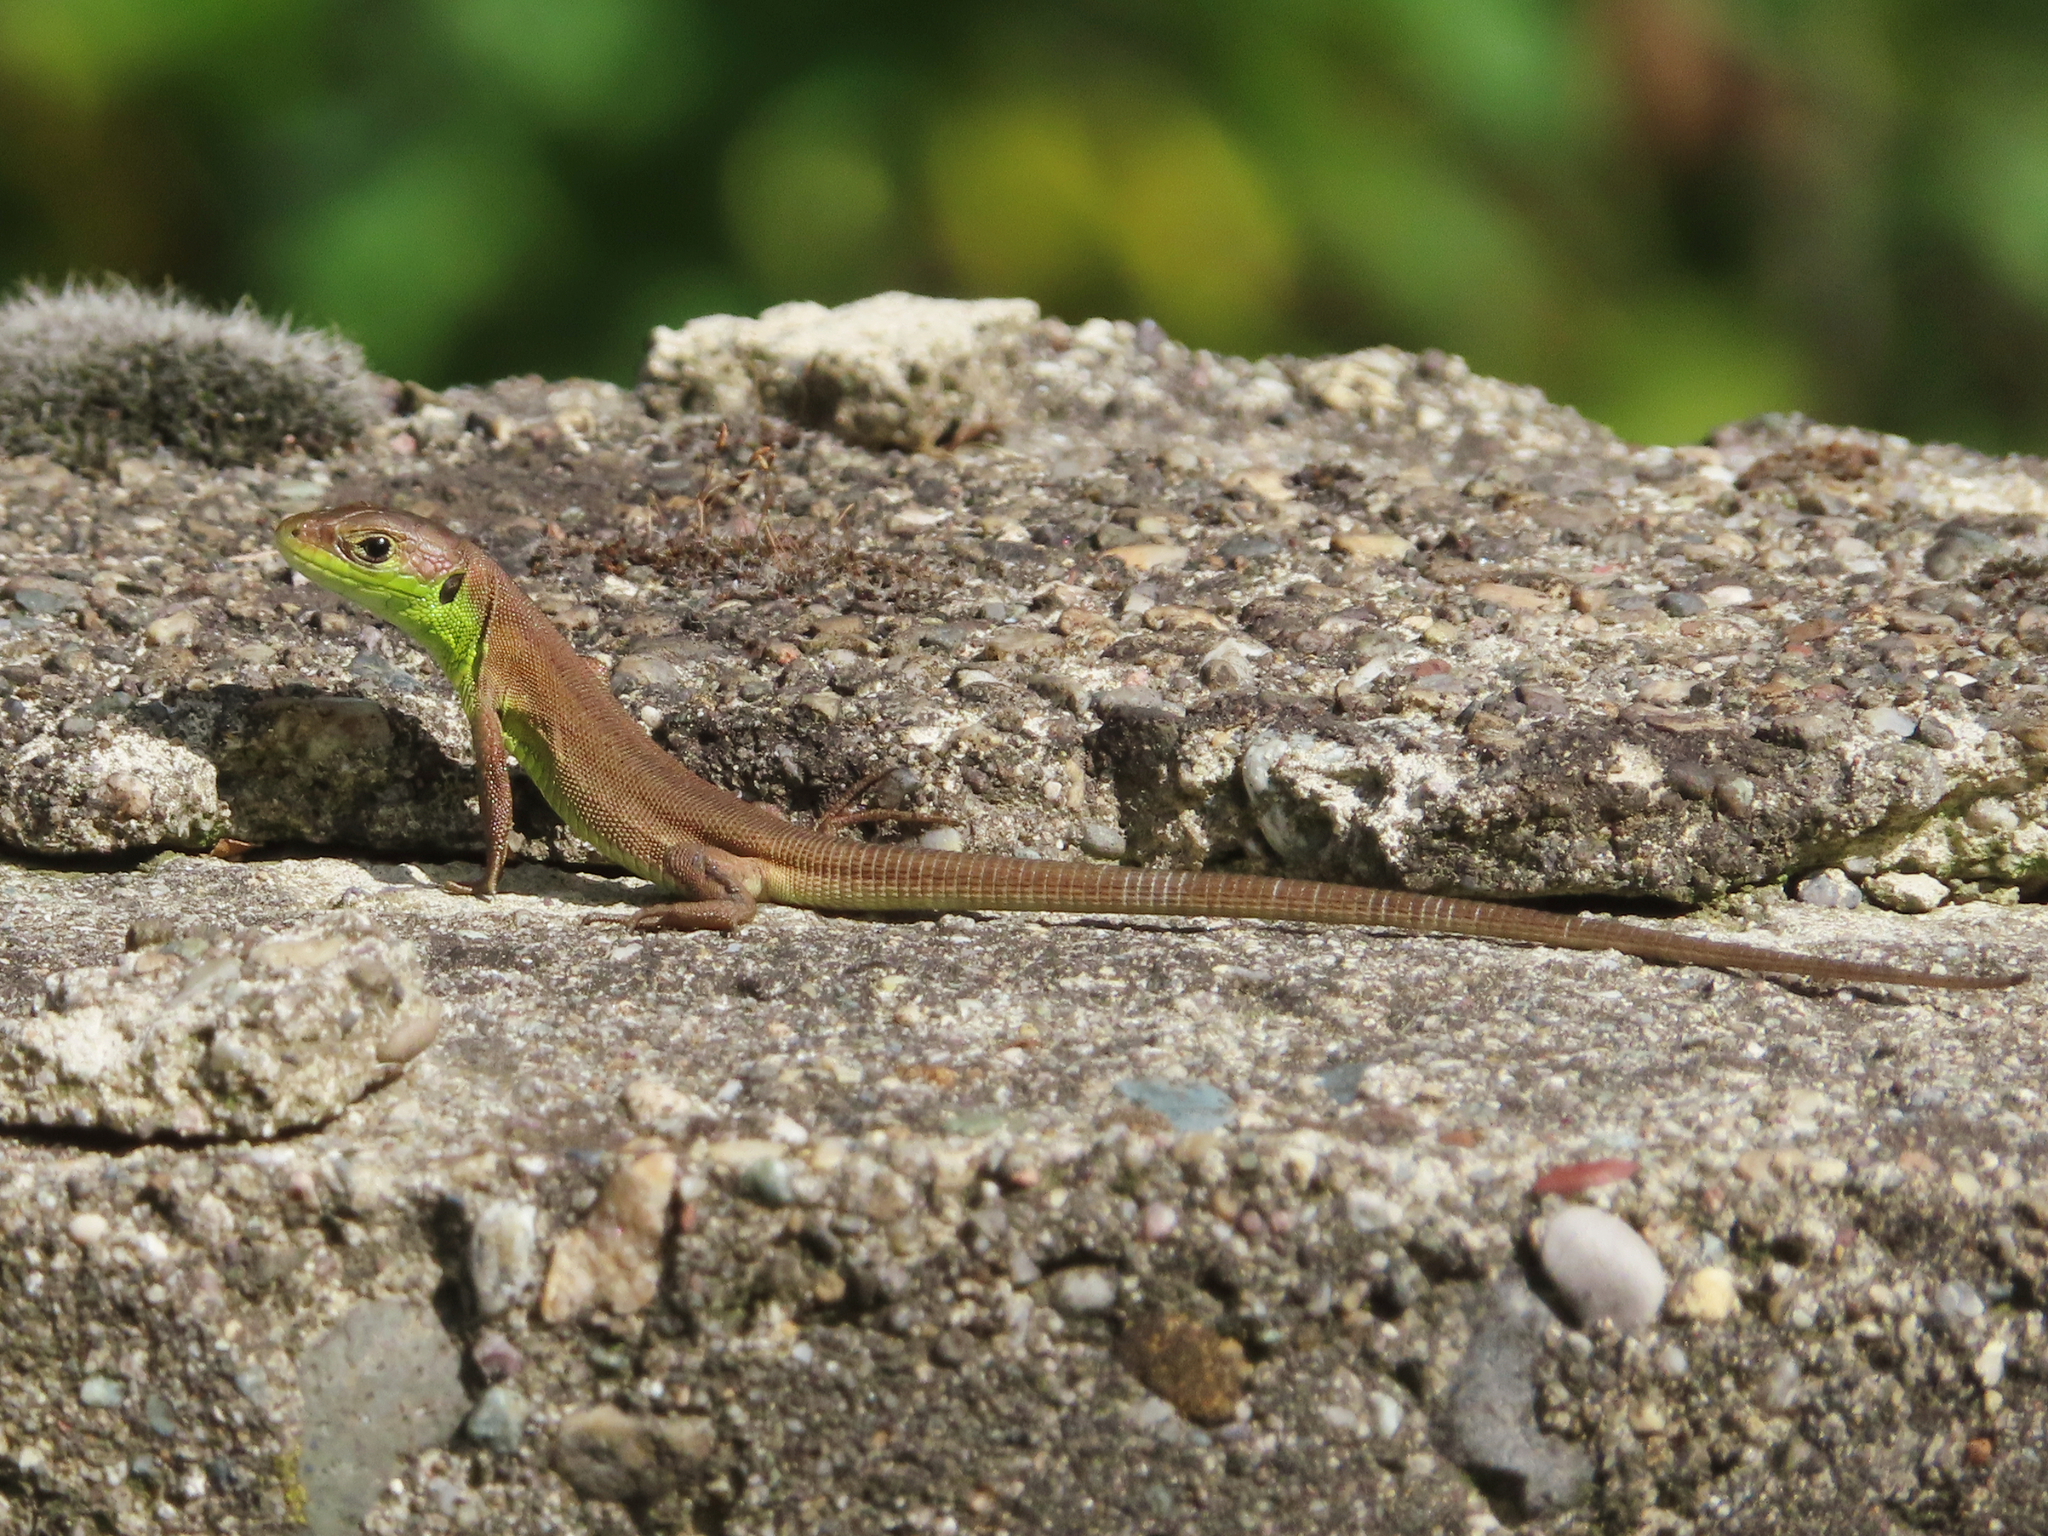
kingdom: Animalia
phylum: Chordata
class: Squamata
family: Lacertidae
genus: Lacerta
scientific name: Lacerta viridis
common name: European green lizard
